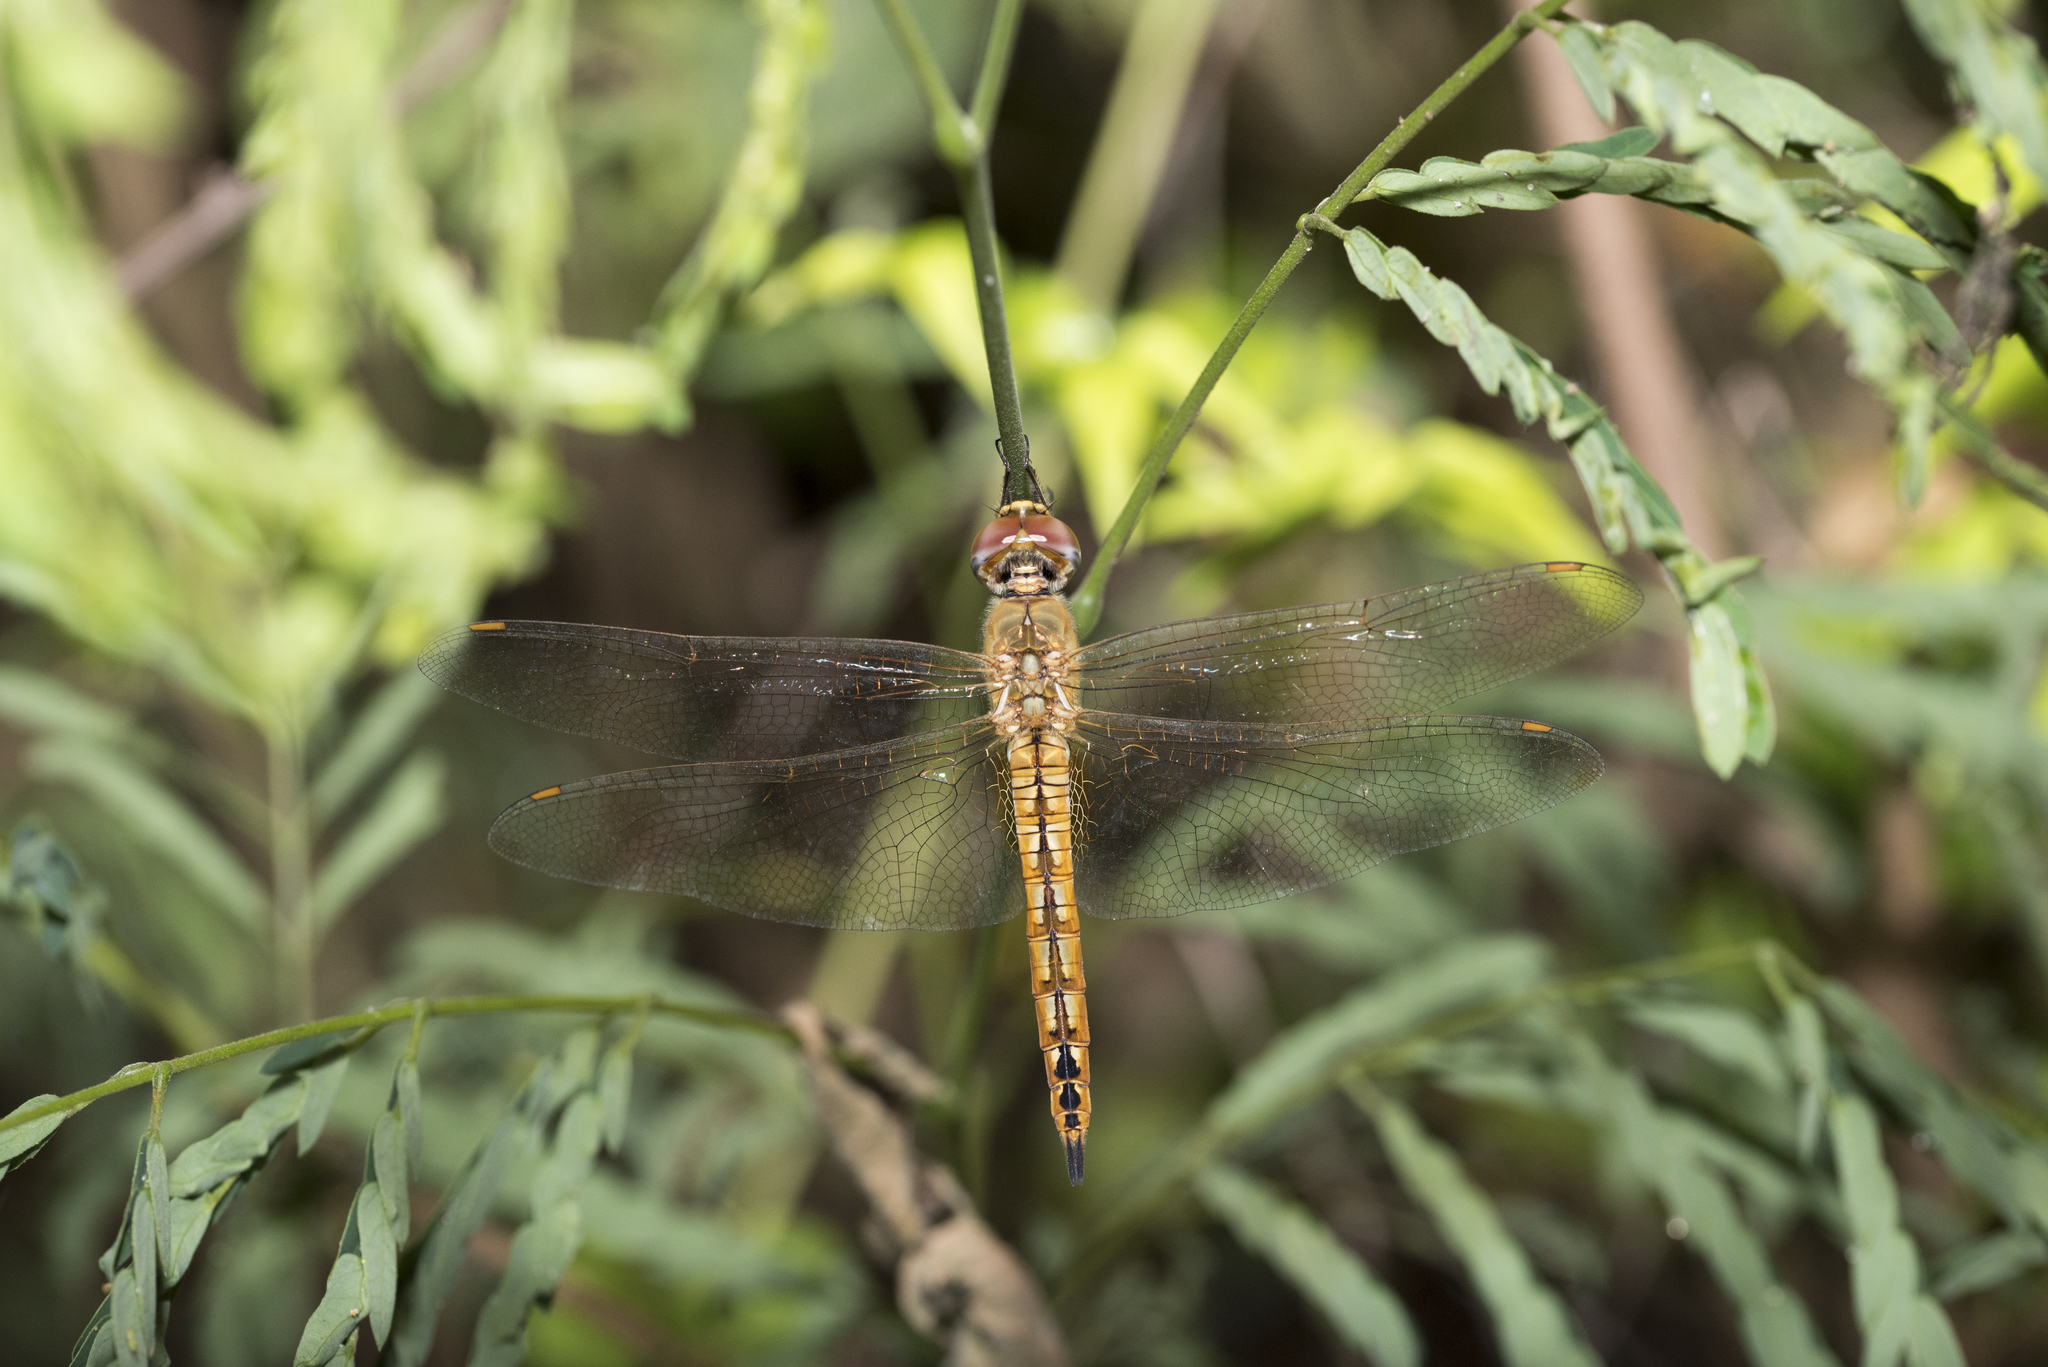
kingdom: Animalia
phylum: Arthropoda
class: Insecta
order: Odonata
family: Libellulidae
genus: Pantala
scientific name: Pantala flavescens
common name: Wandering glider
